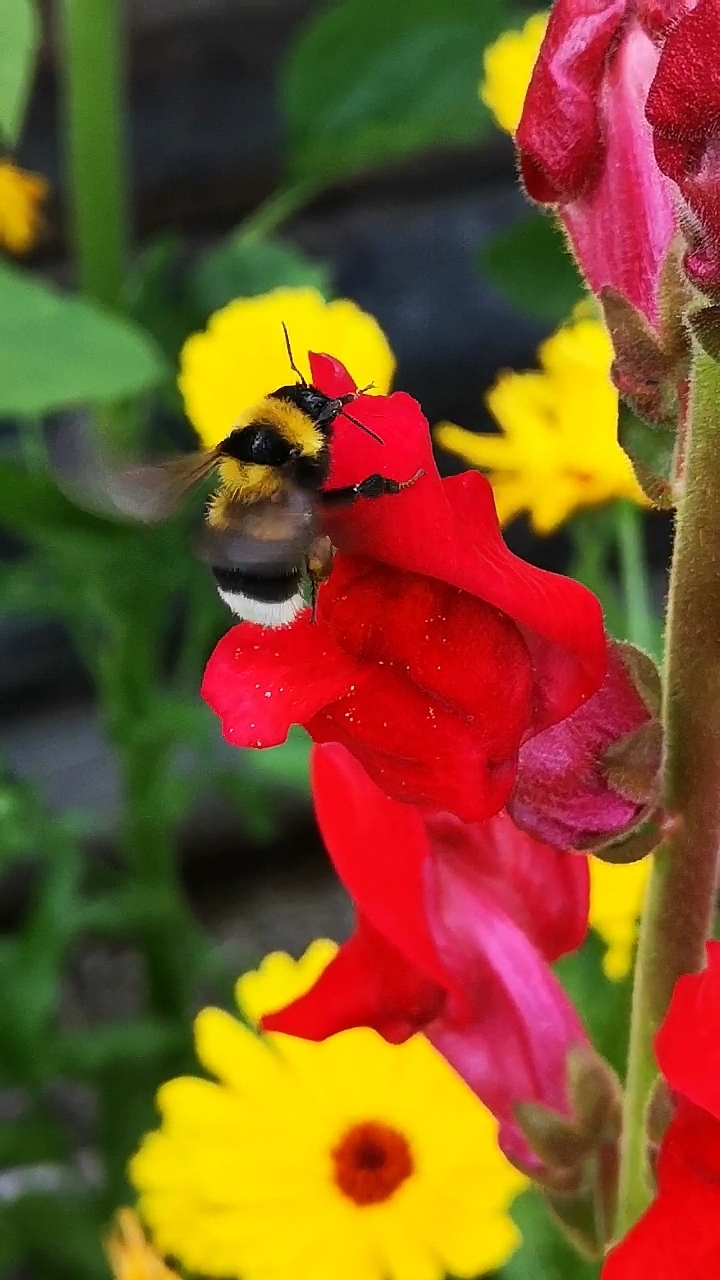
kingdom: Animalia
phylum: Arthropoda
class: Insecta
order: Hymenoptera
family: Apidae
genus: Bombus
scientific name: Bombus argillaceus
